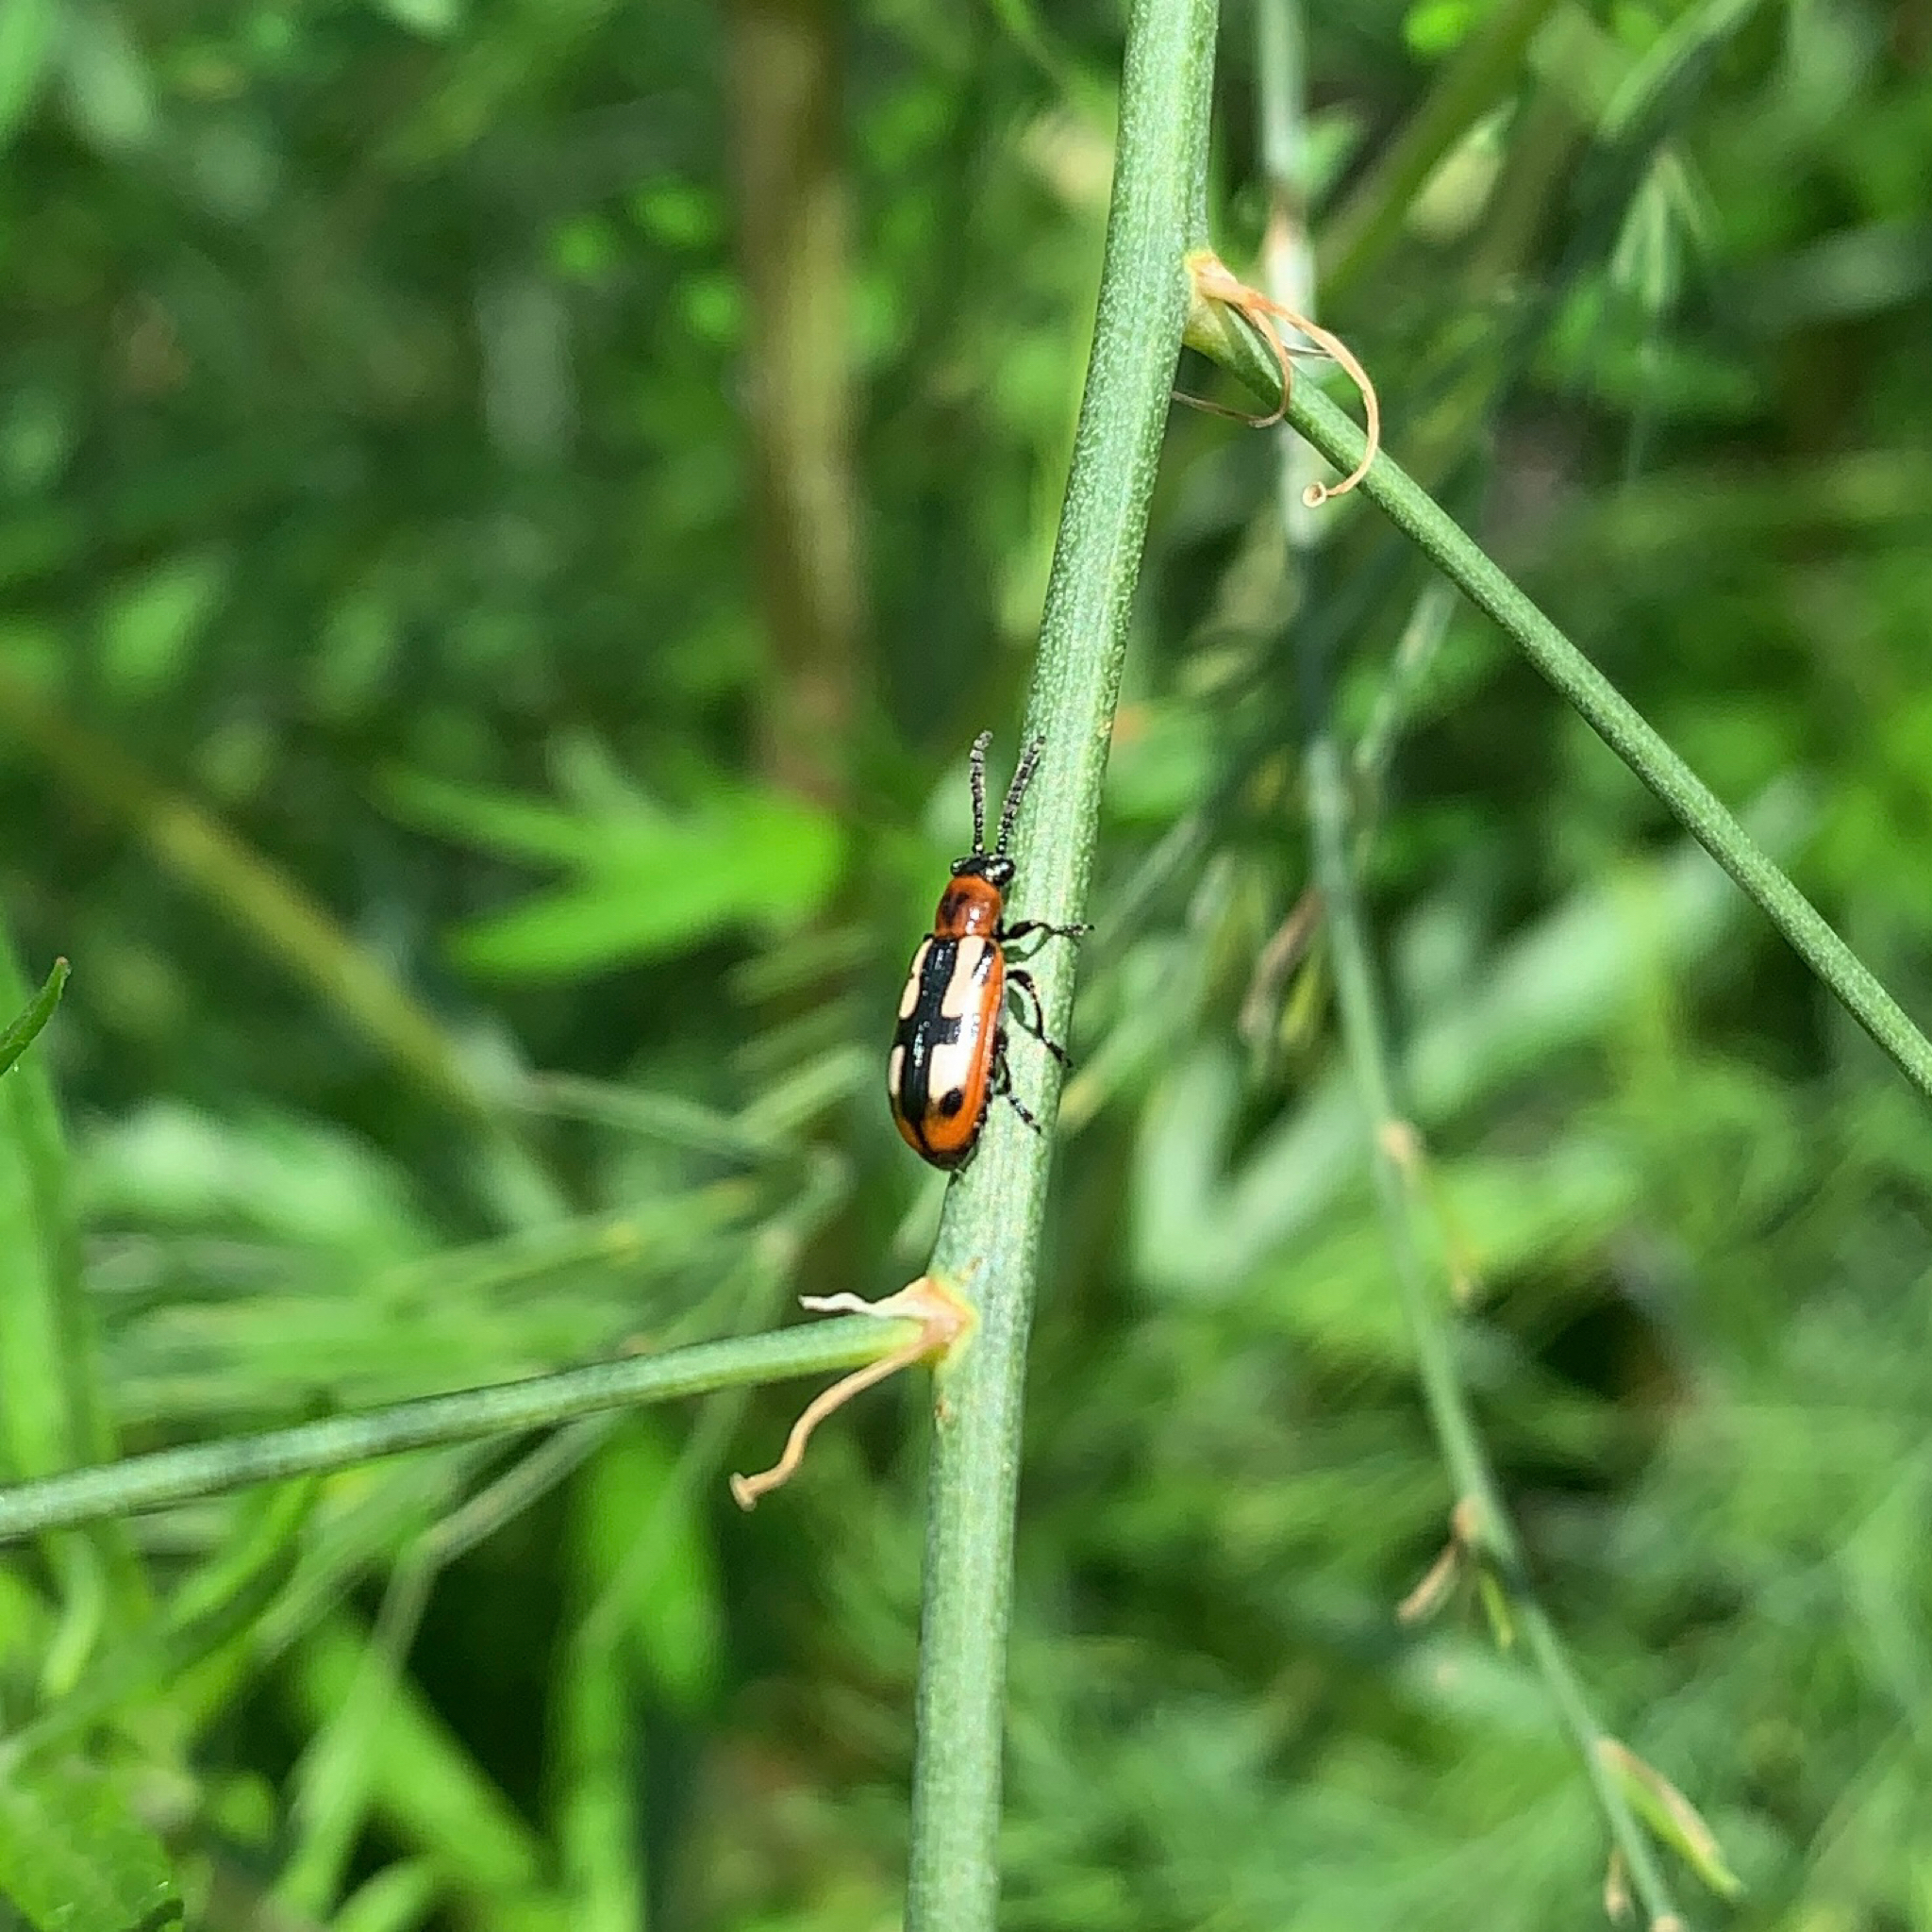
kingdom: Animalia
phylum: Arthropoda
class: Insecta
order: Coleoptera
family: Chrysomelidae
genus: Crioceris
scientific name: Crioceris asparagi
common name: Asparagus beetle
